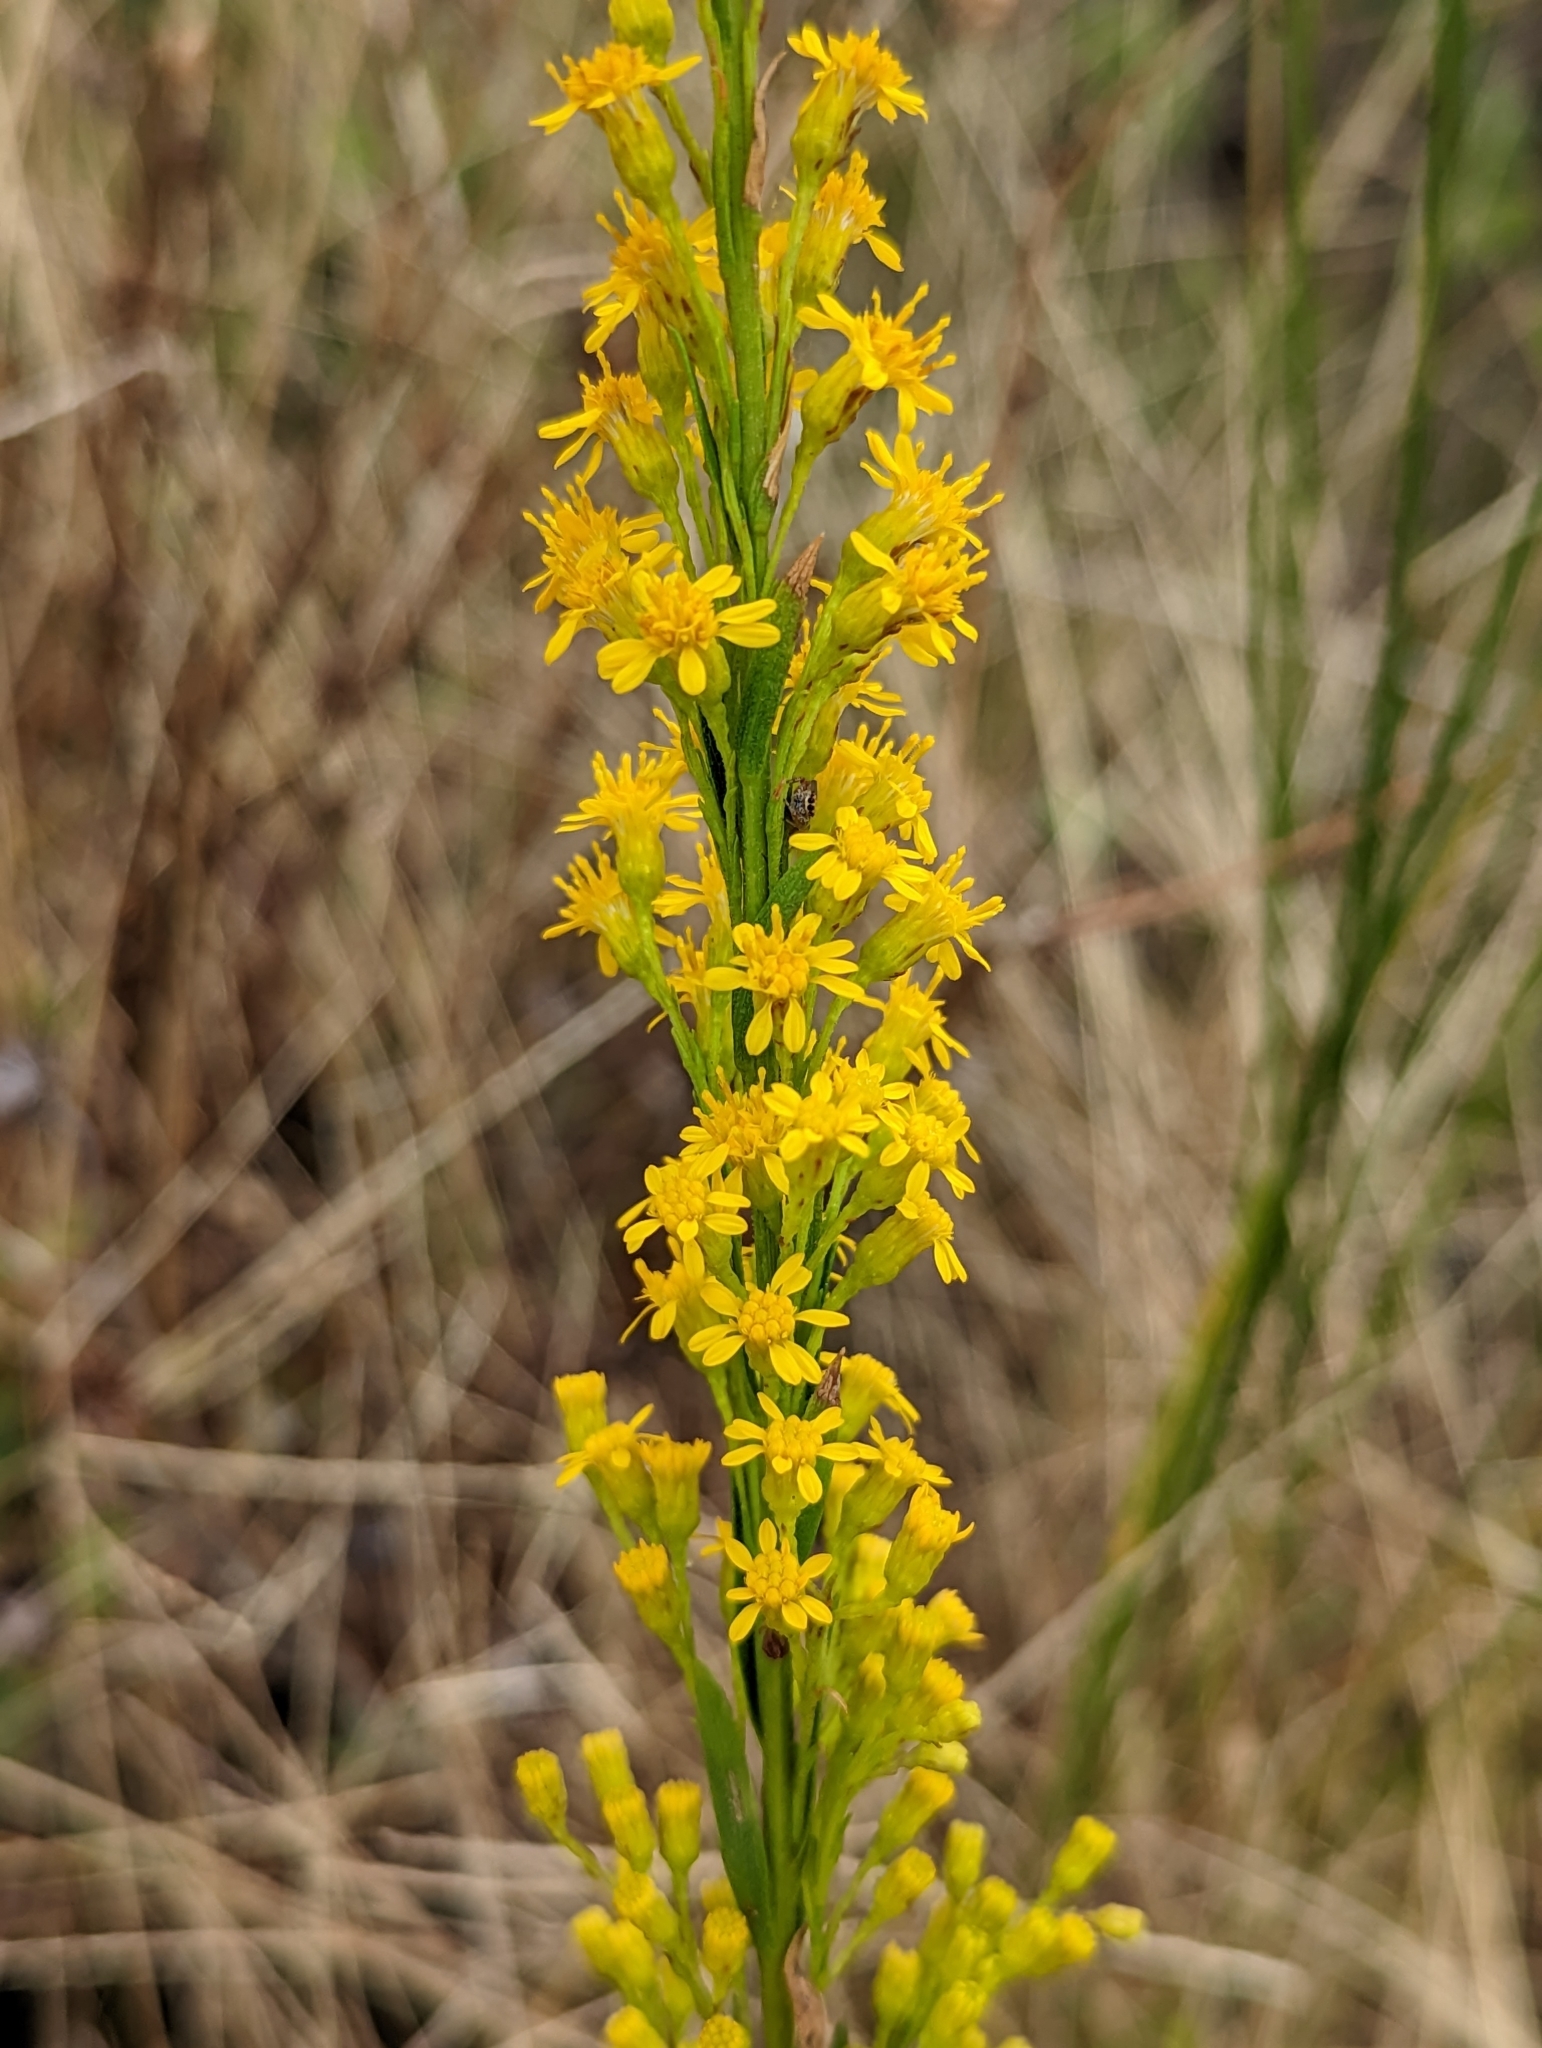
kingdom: Plantae
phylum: Tracheophyta
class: Magnoliopsida
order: Asterales
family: Asteraceae
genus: Solidago
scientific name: Solidago mexicana
